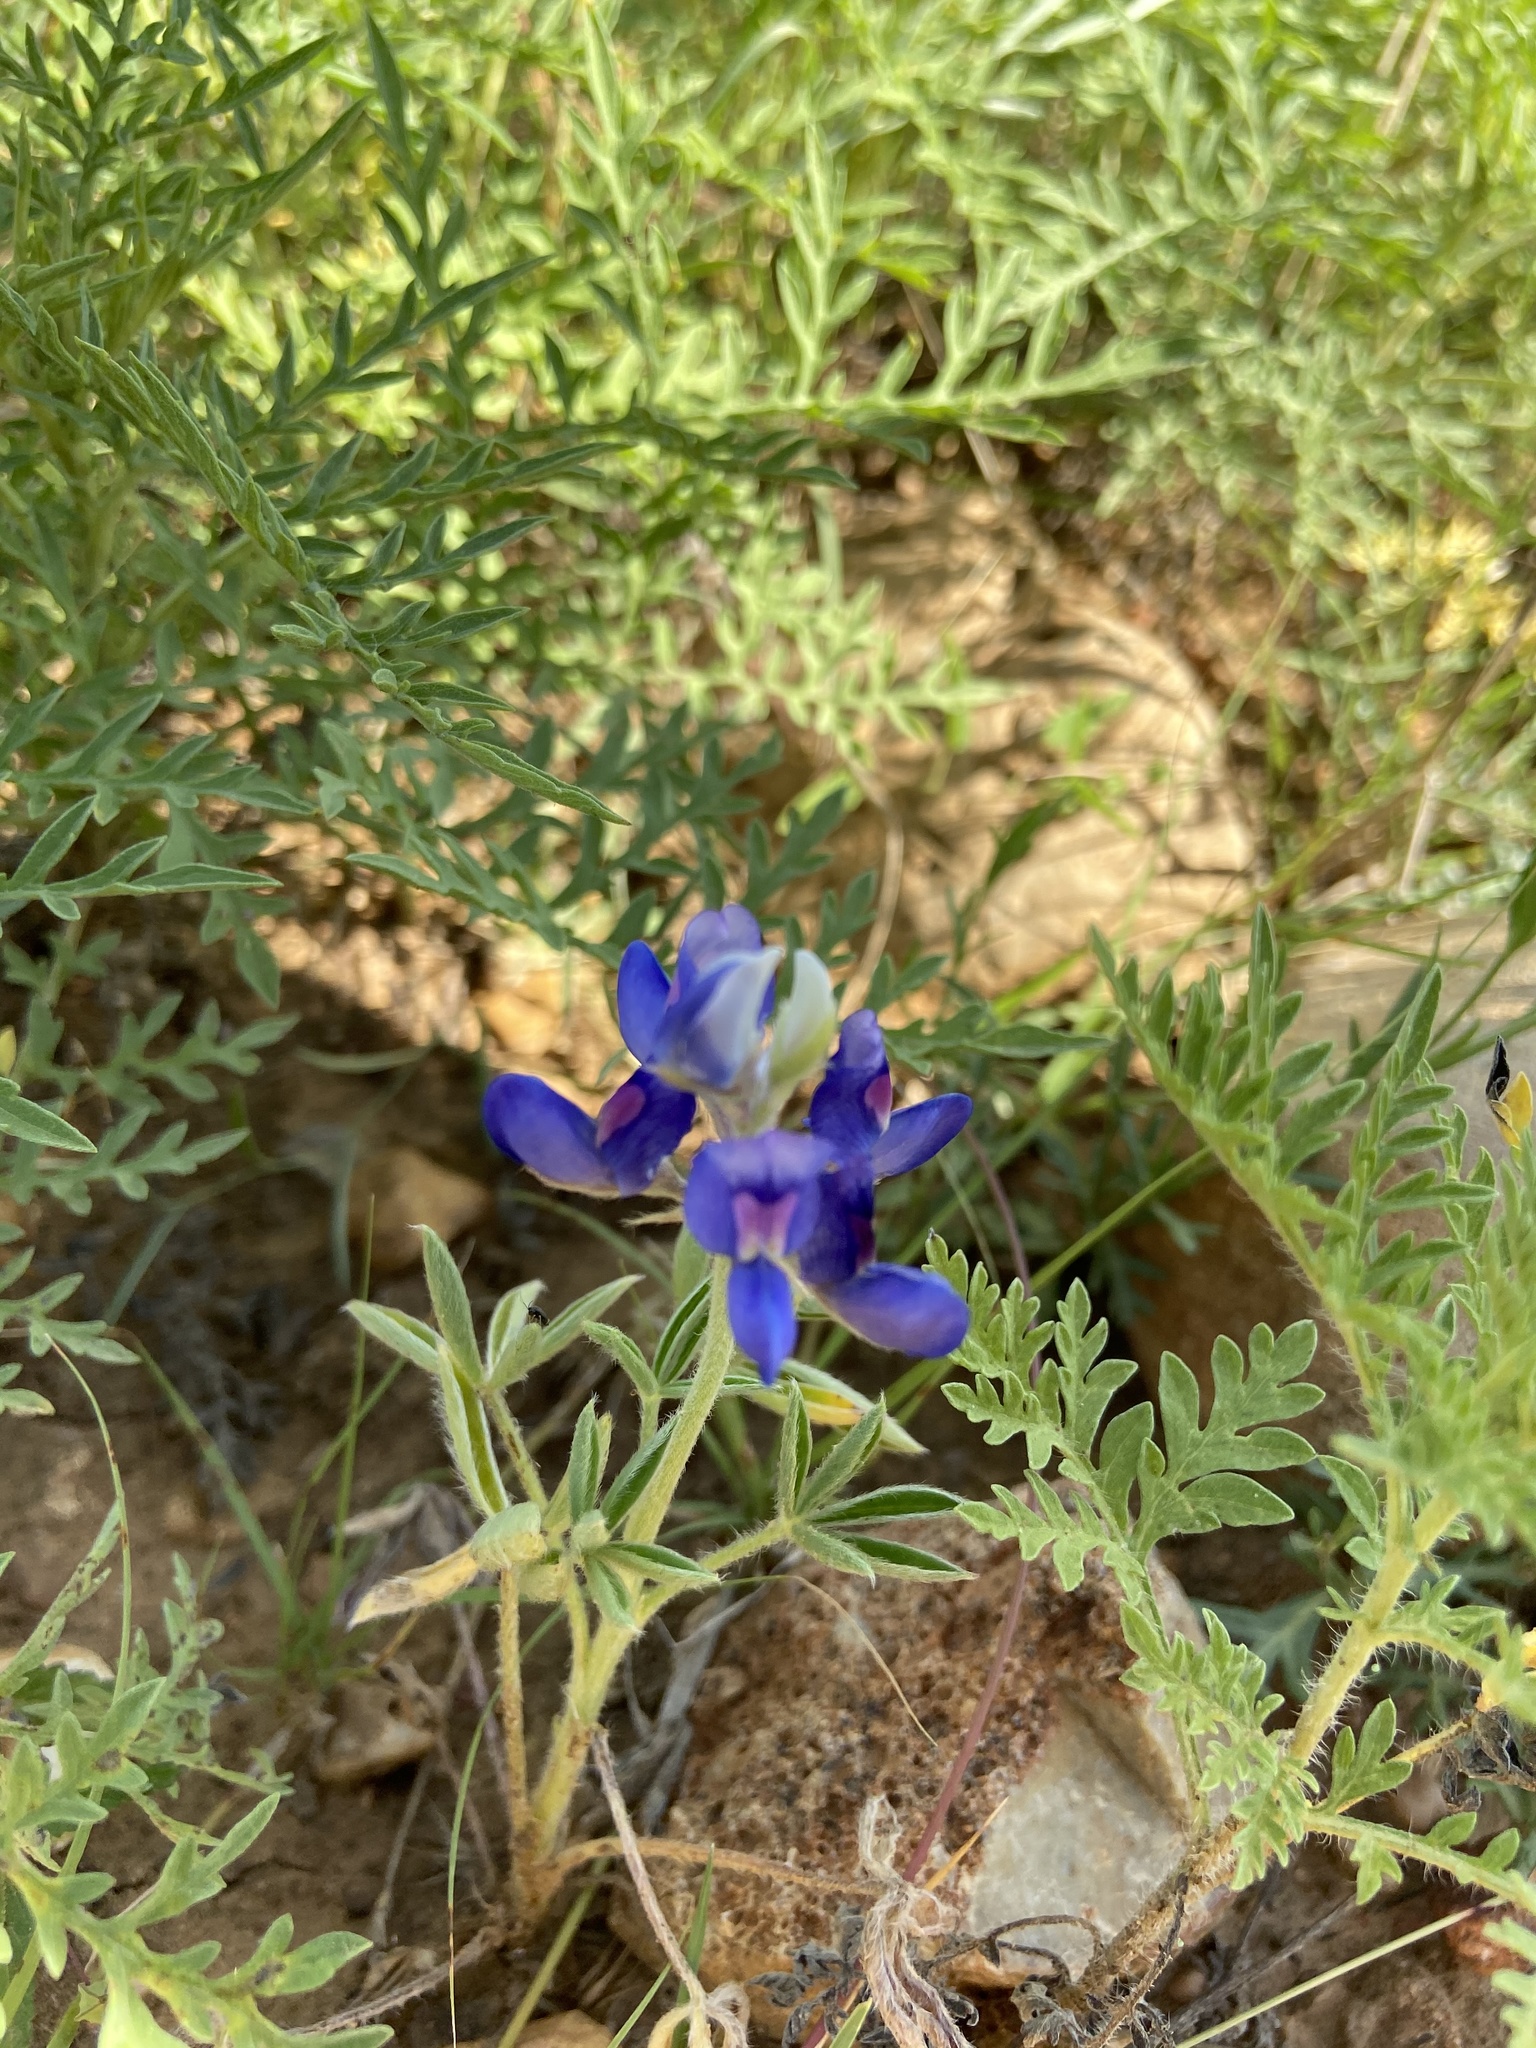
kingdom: Plantae
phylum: Tracheophyta
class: Magnoliopsida
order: Fabales
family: Fabaceae
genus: Lupinus
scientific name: Lupinus texensis
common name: Texas bluebonnet
